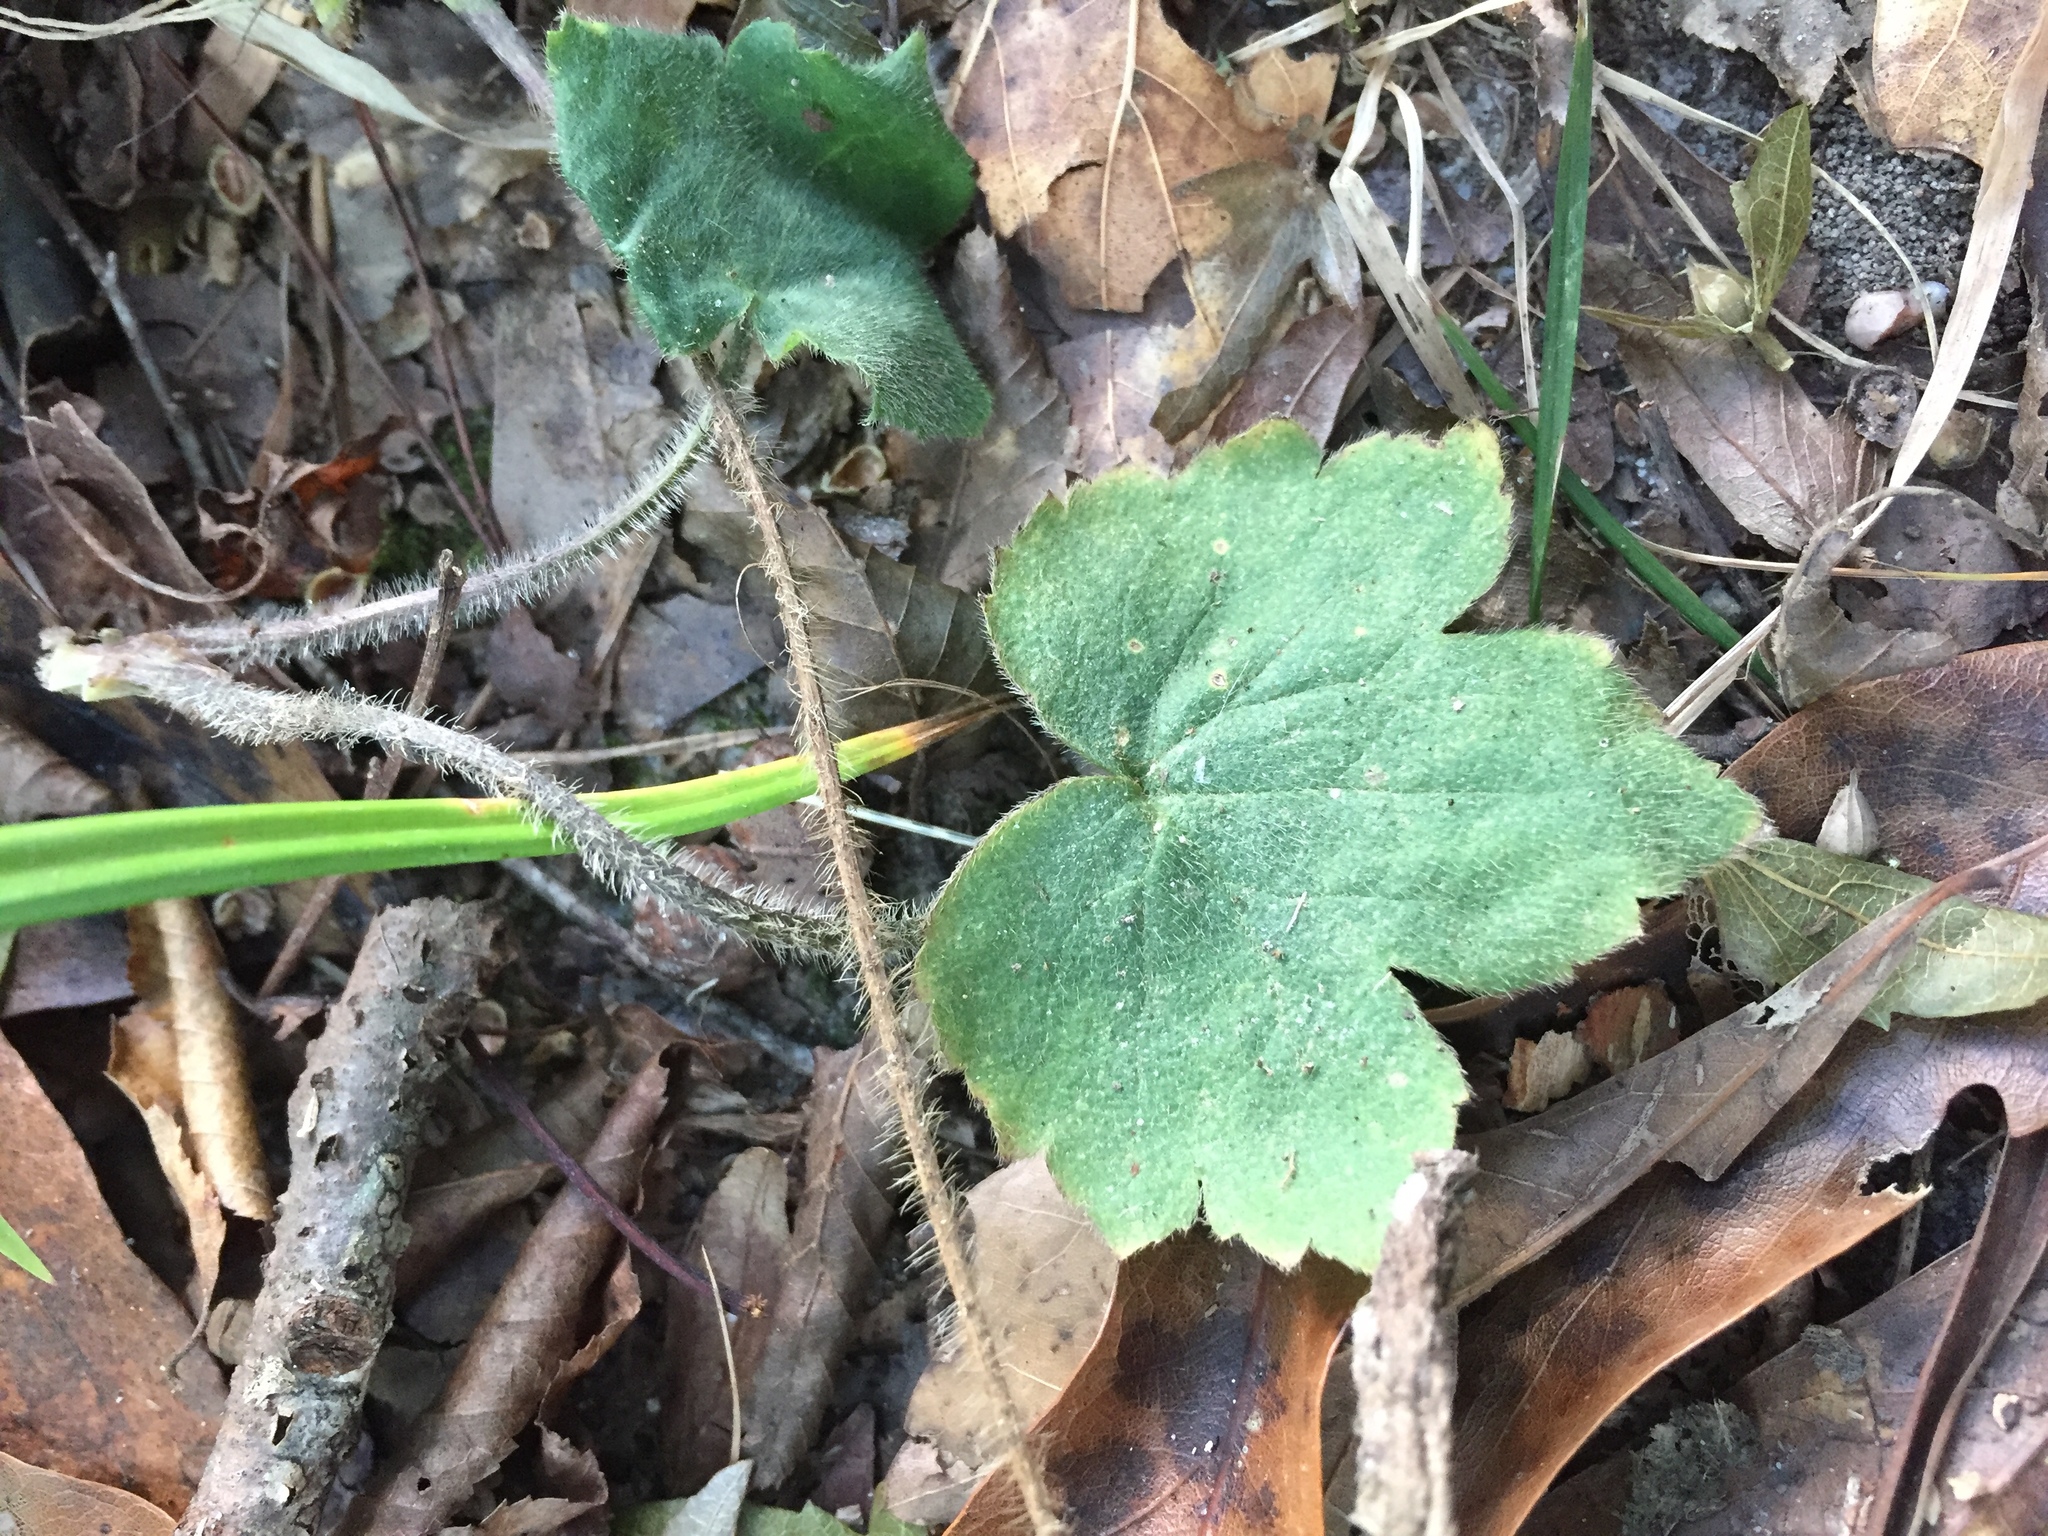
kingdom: Plantae
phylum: Tracheophyta
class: Magnoliopsida
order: Ranunculales
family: Ranunculaceae
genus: Ranunculus
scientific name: Ranunculus recurvatus
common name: Blisterwort
